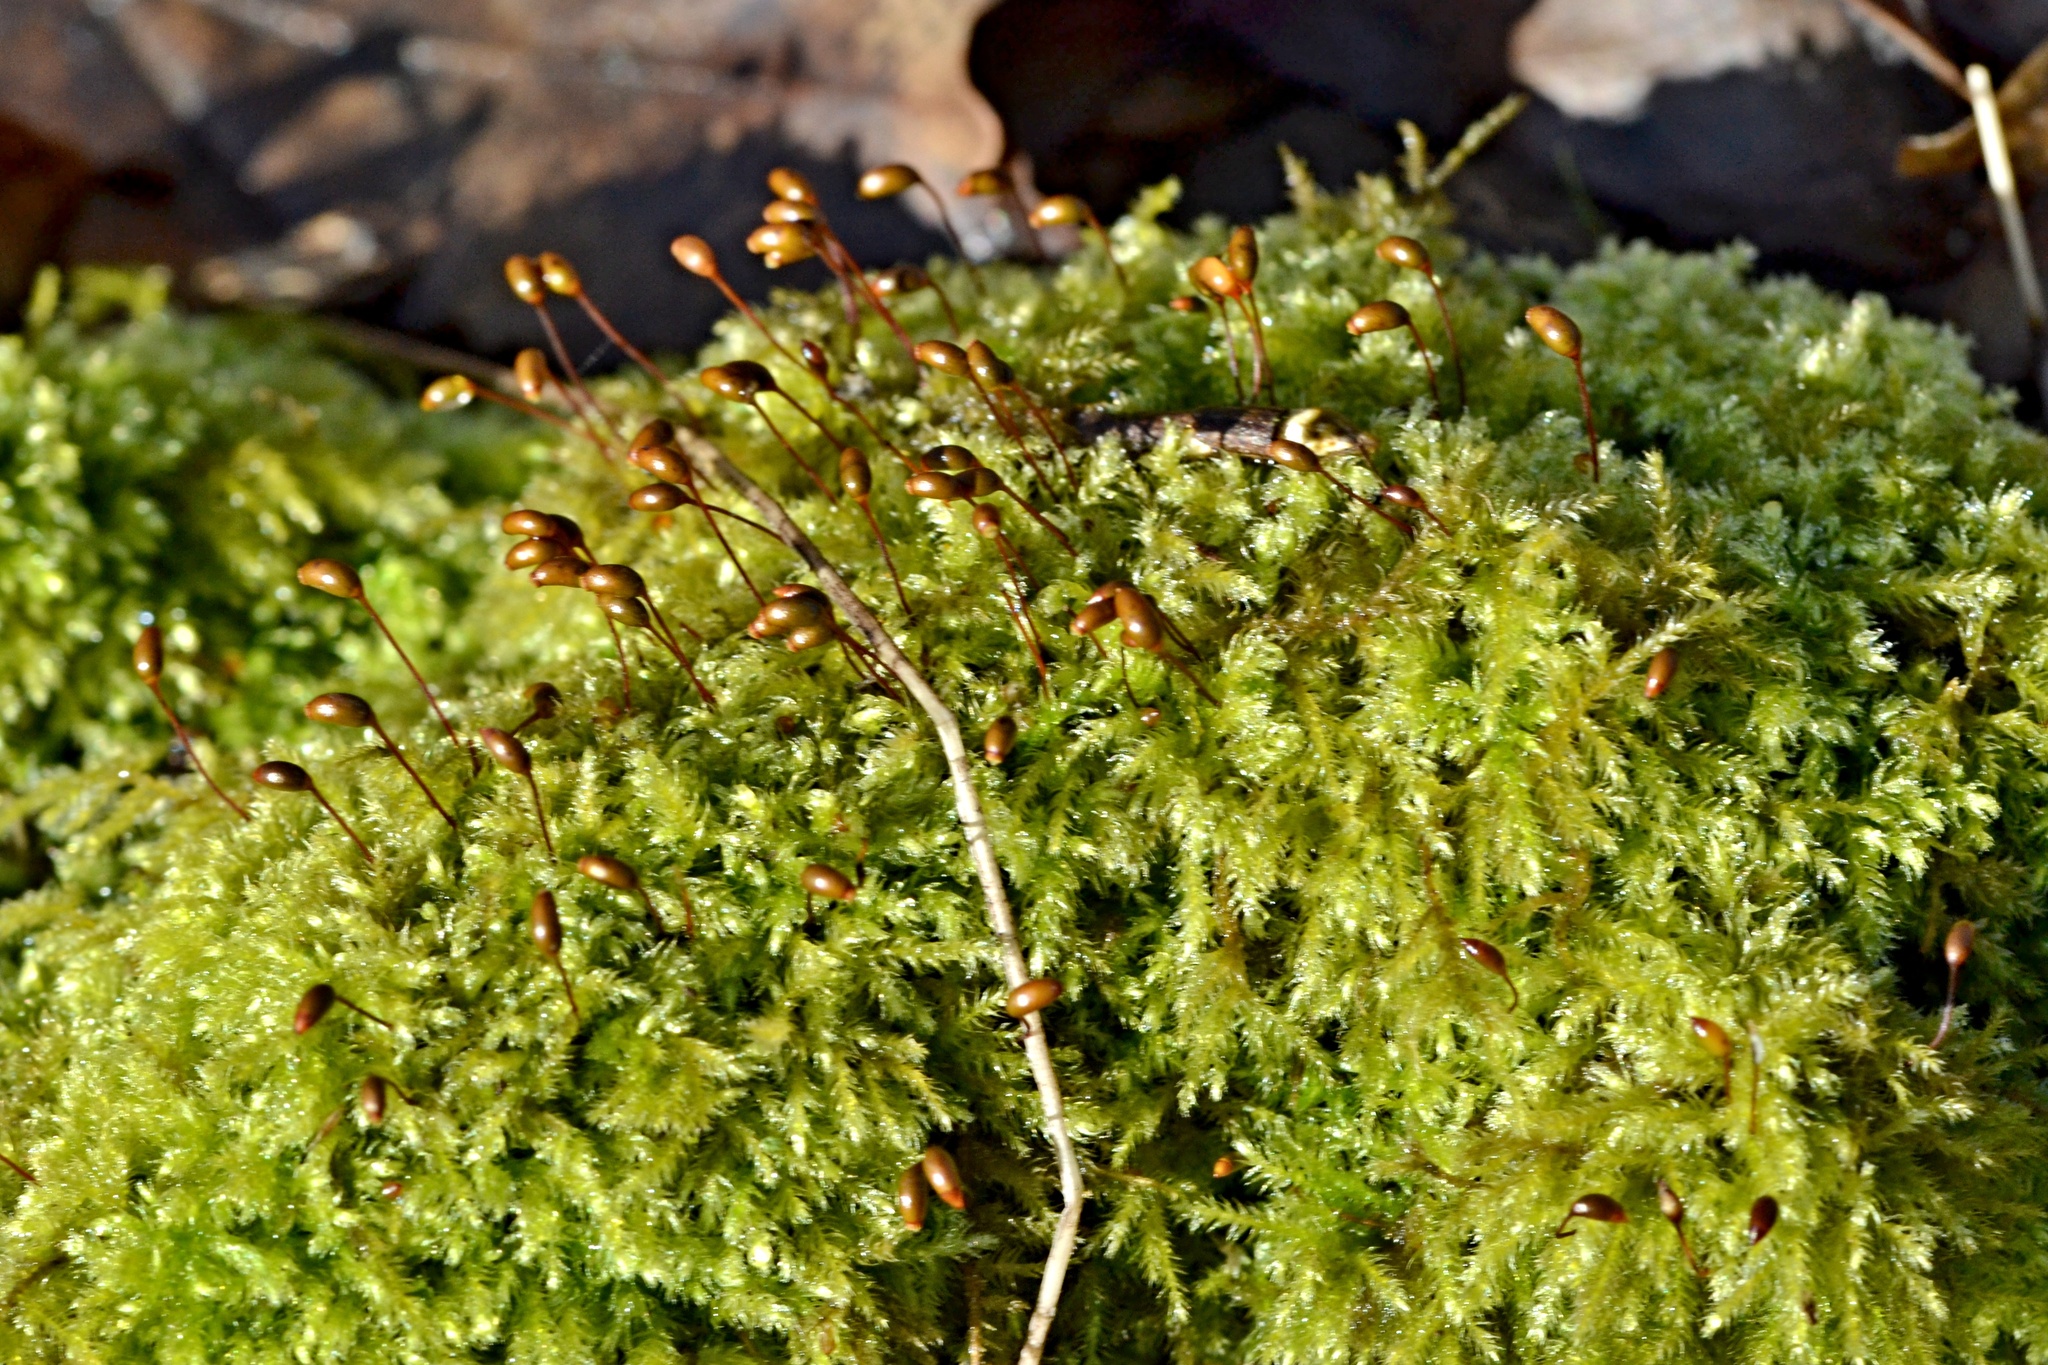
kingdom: Plantae
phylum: Bryophyta
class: Bryopsida
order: Hypnales
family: Brachytheciaceae
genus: Brachytheciastrum
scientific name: Brachytheciastrum velutinum
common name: Velvet feather-moss
